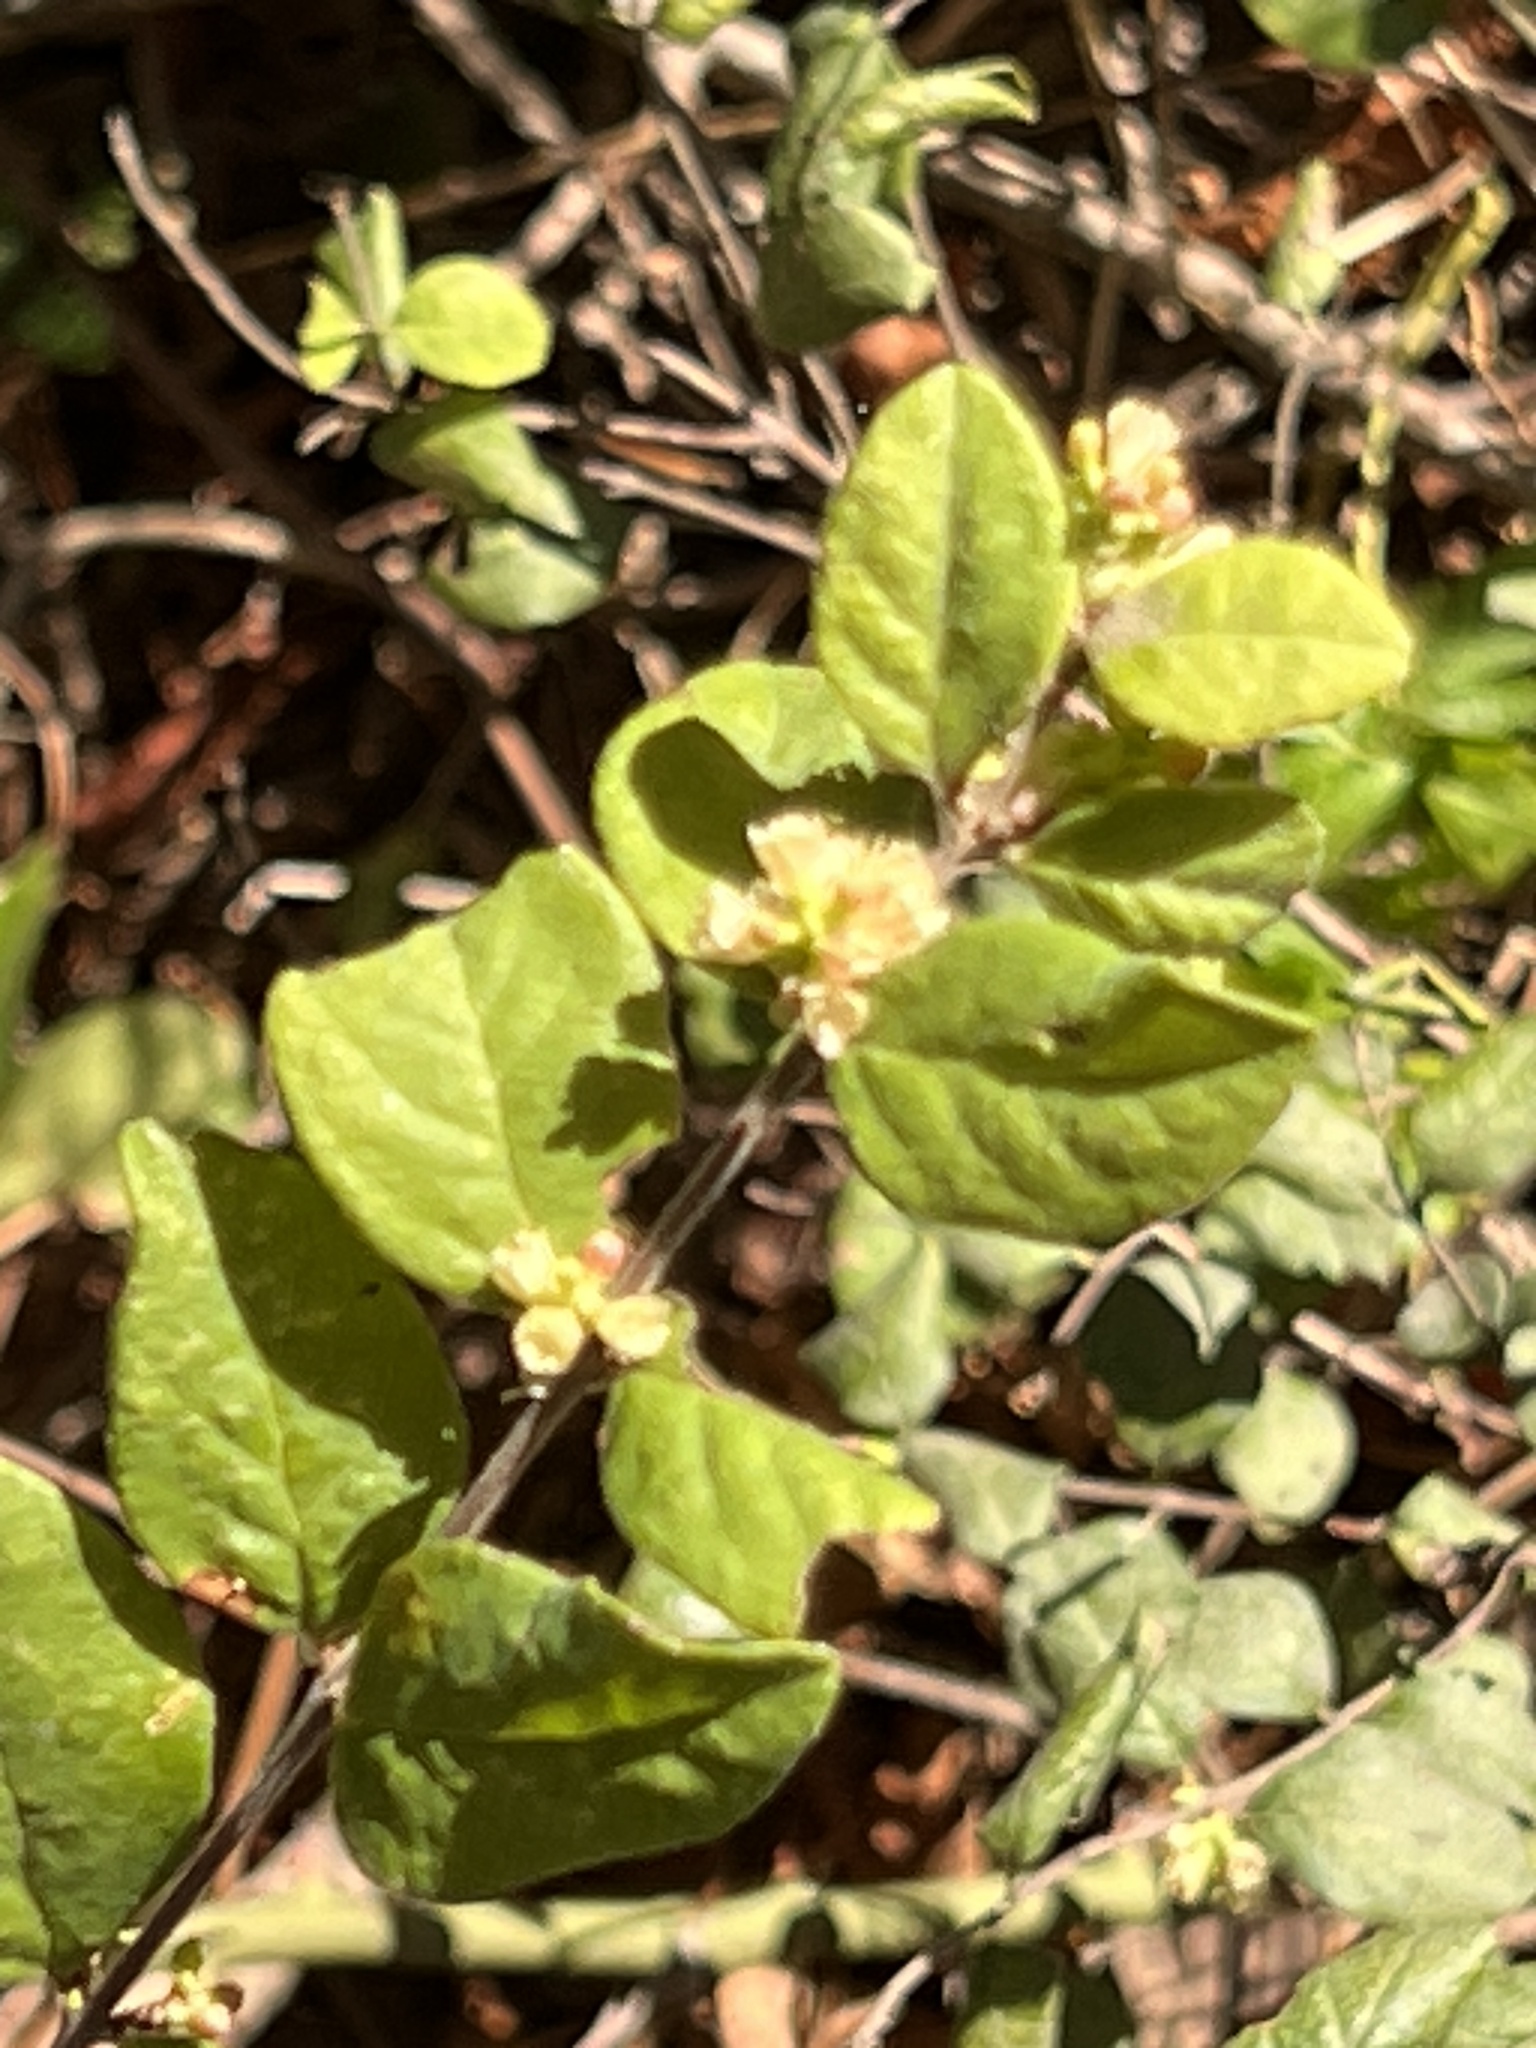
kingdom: Plantae
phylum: Tracheophyta
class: Magnoliopsida
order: Dipsacales
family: Caprifoliaceae
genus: Symphoricarpos
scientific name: Symphoricarpos orbiculatus
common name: Coralberry
